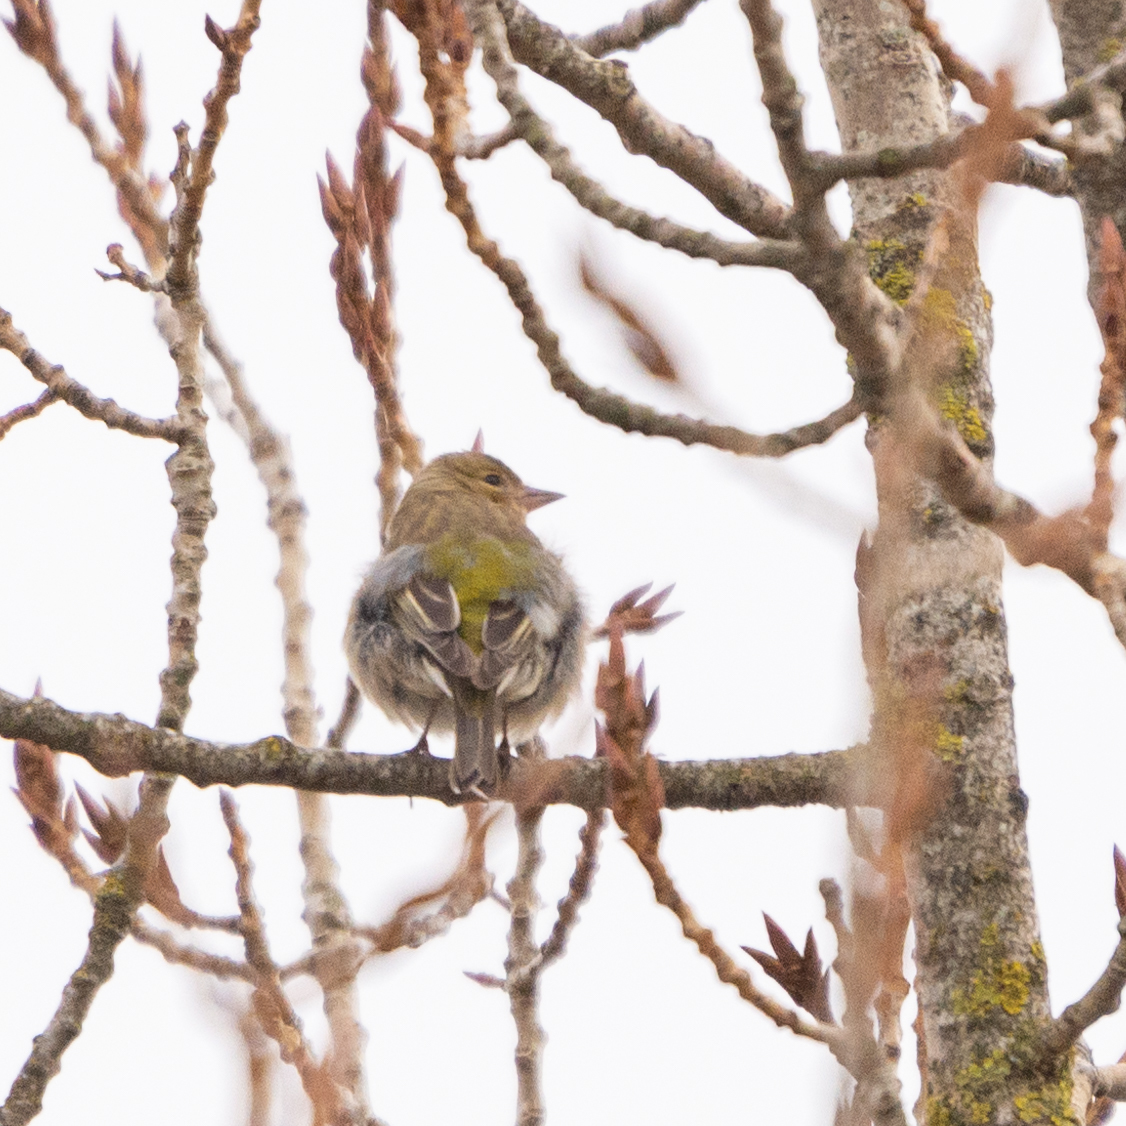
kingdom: Animalia
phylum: Chordata
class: Aves
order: Passeriformes
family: Fringillidae
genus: Fringilla
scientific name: Fringilla coelebs
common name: Common chaffinch
